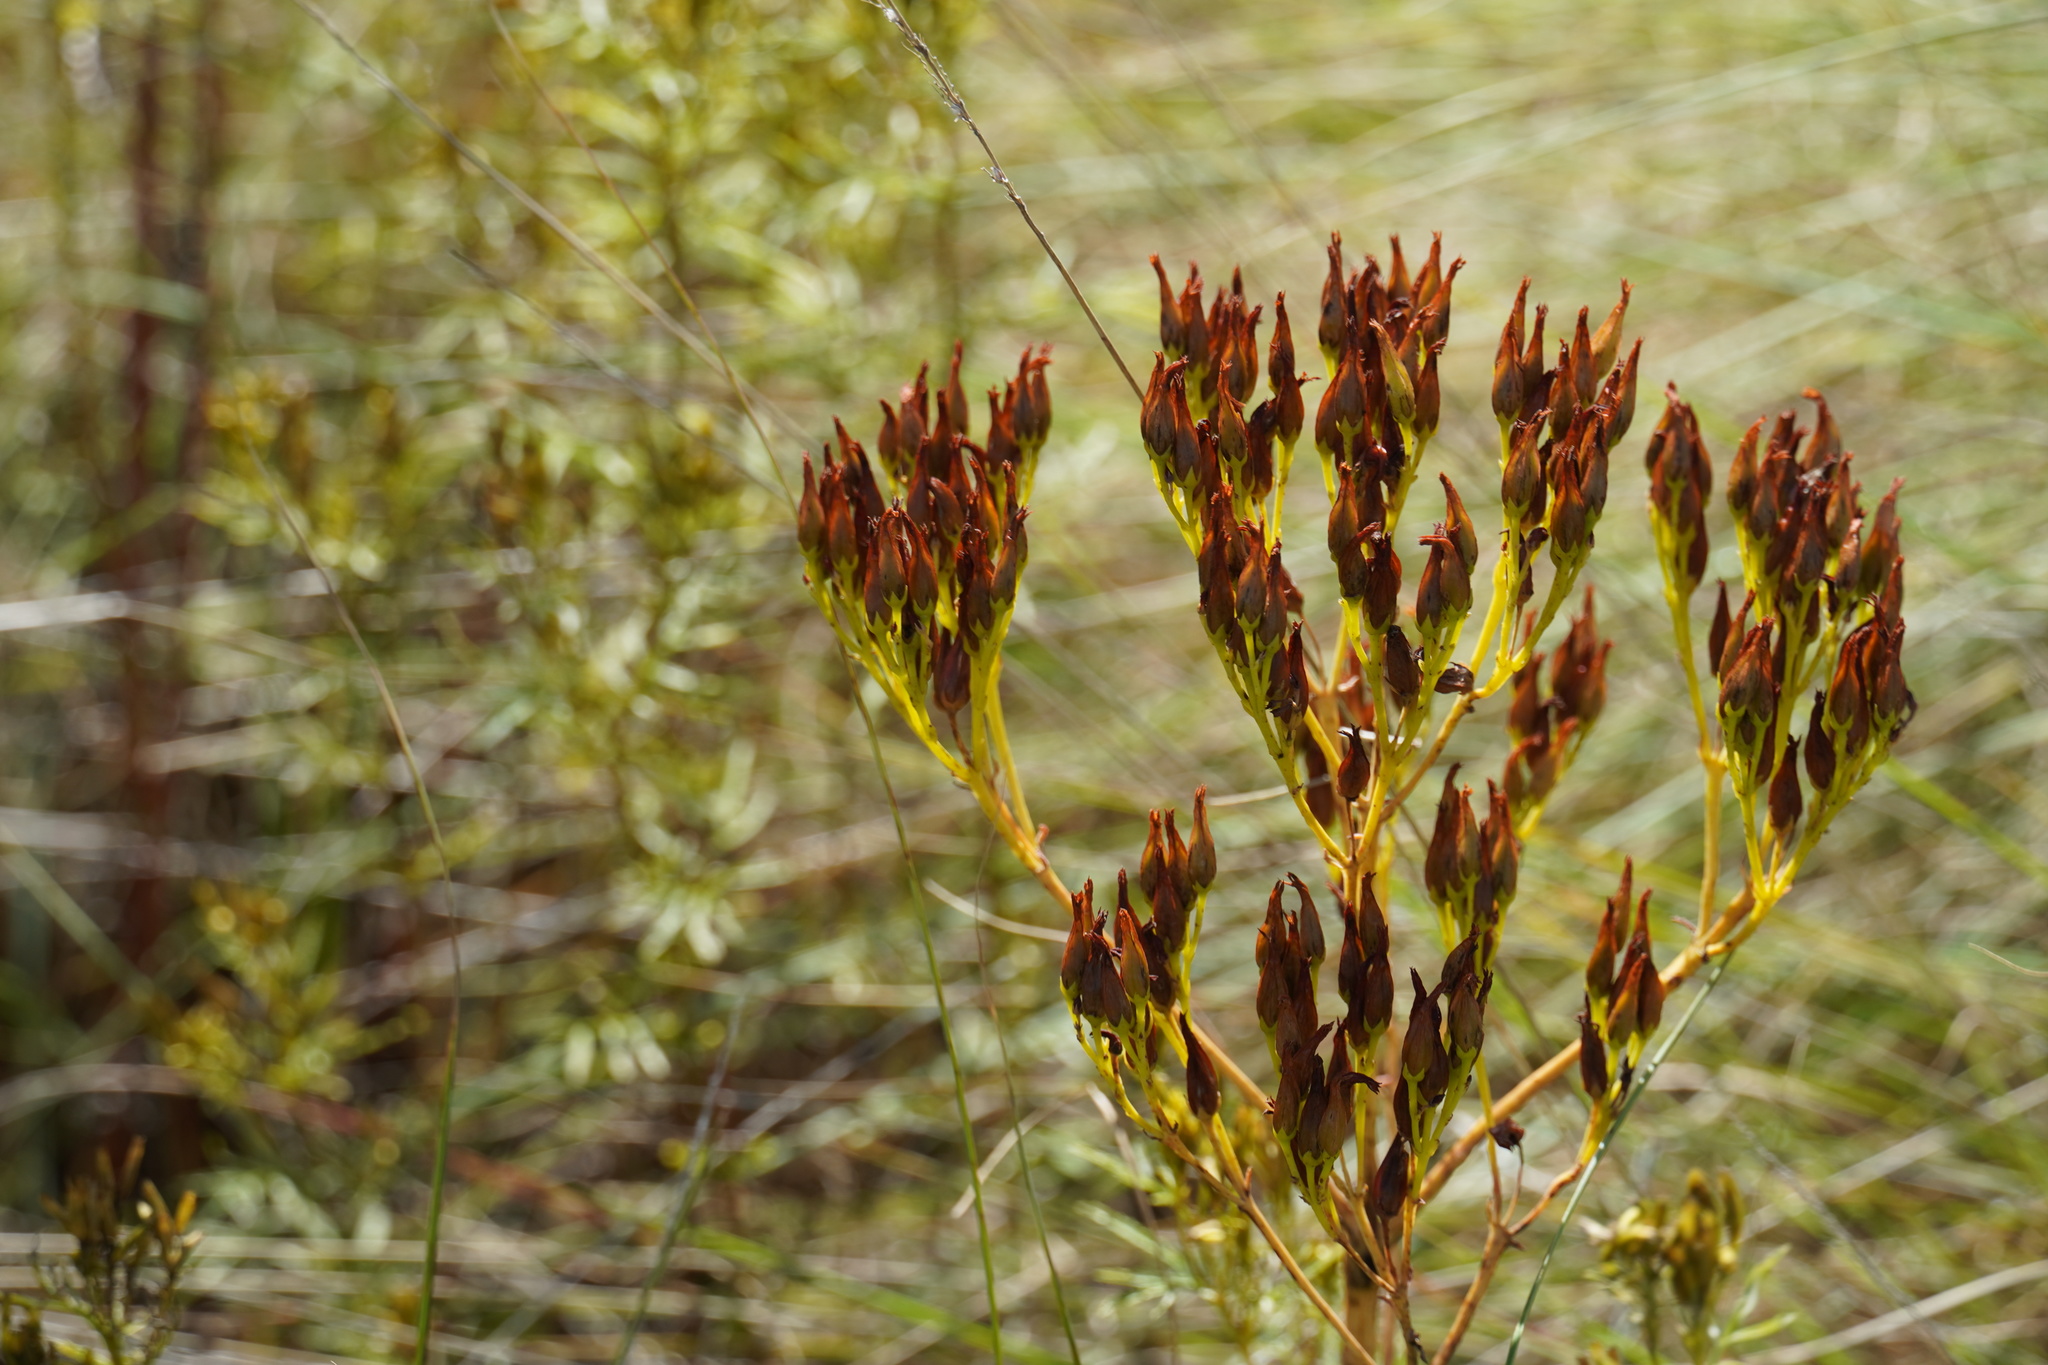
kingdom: Plantae
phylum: Tracheophyta
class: Magnoliopsida
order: Saxifragales
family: Crassulaceae
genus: Kalanchoe
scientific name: Kalanchoe paniculata
